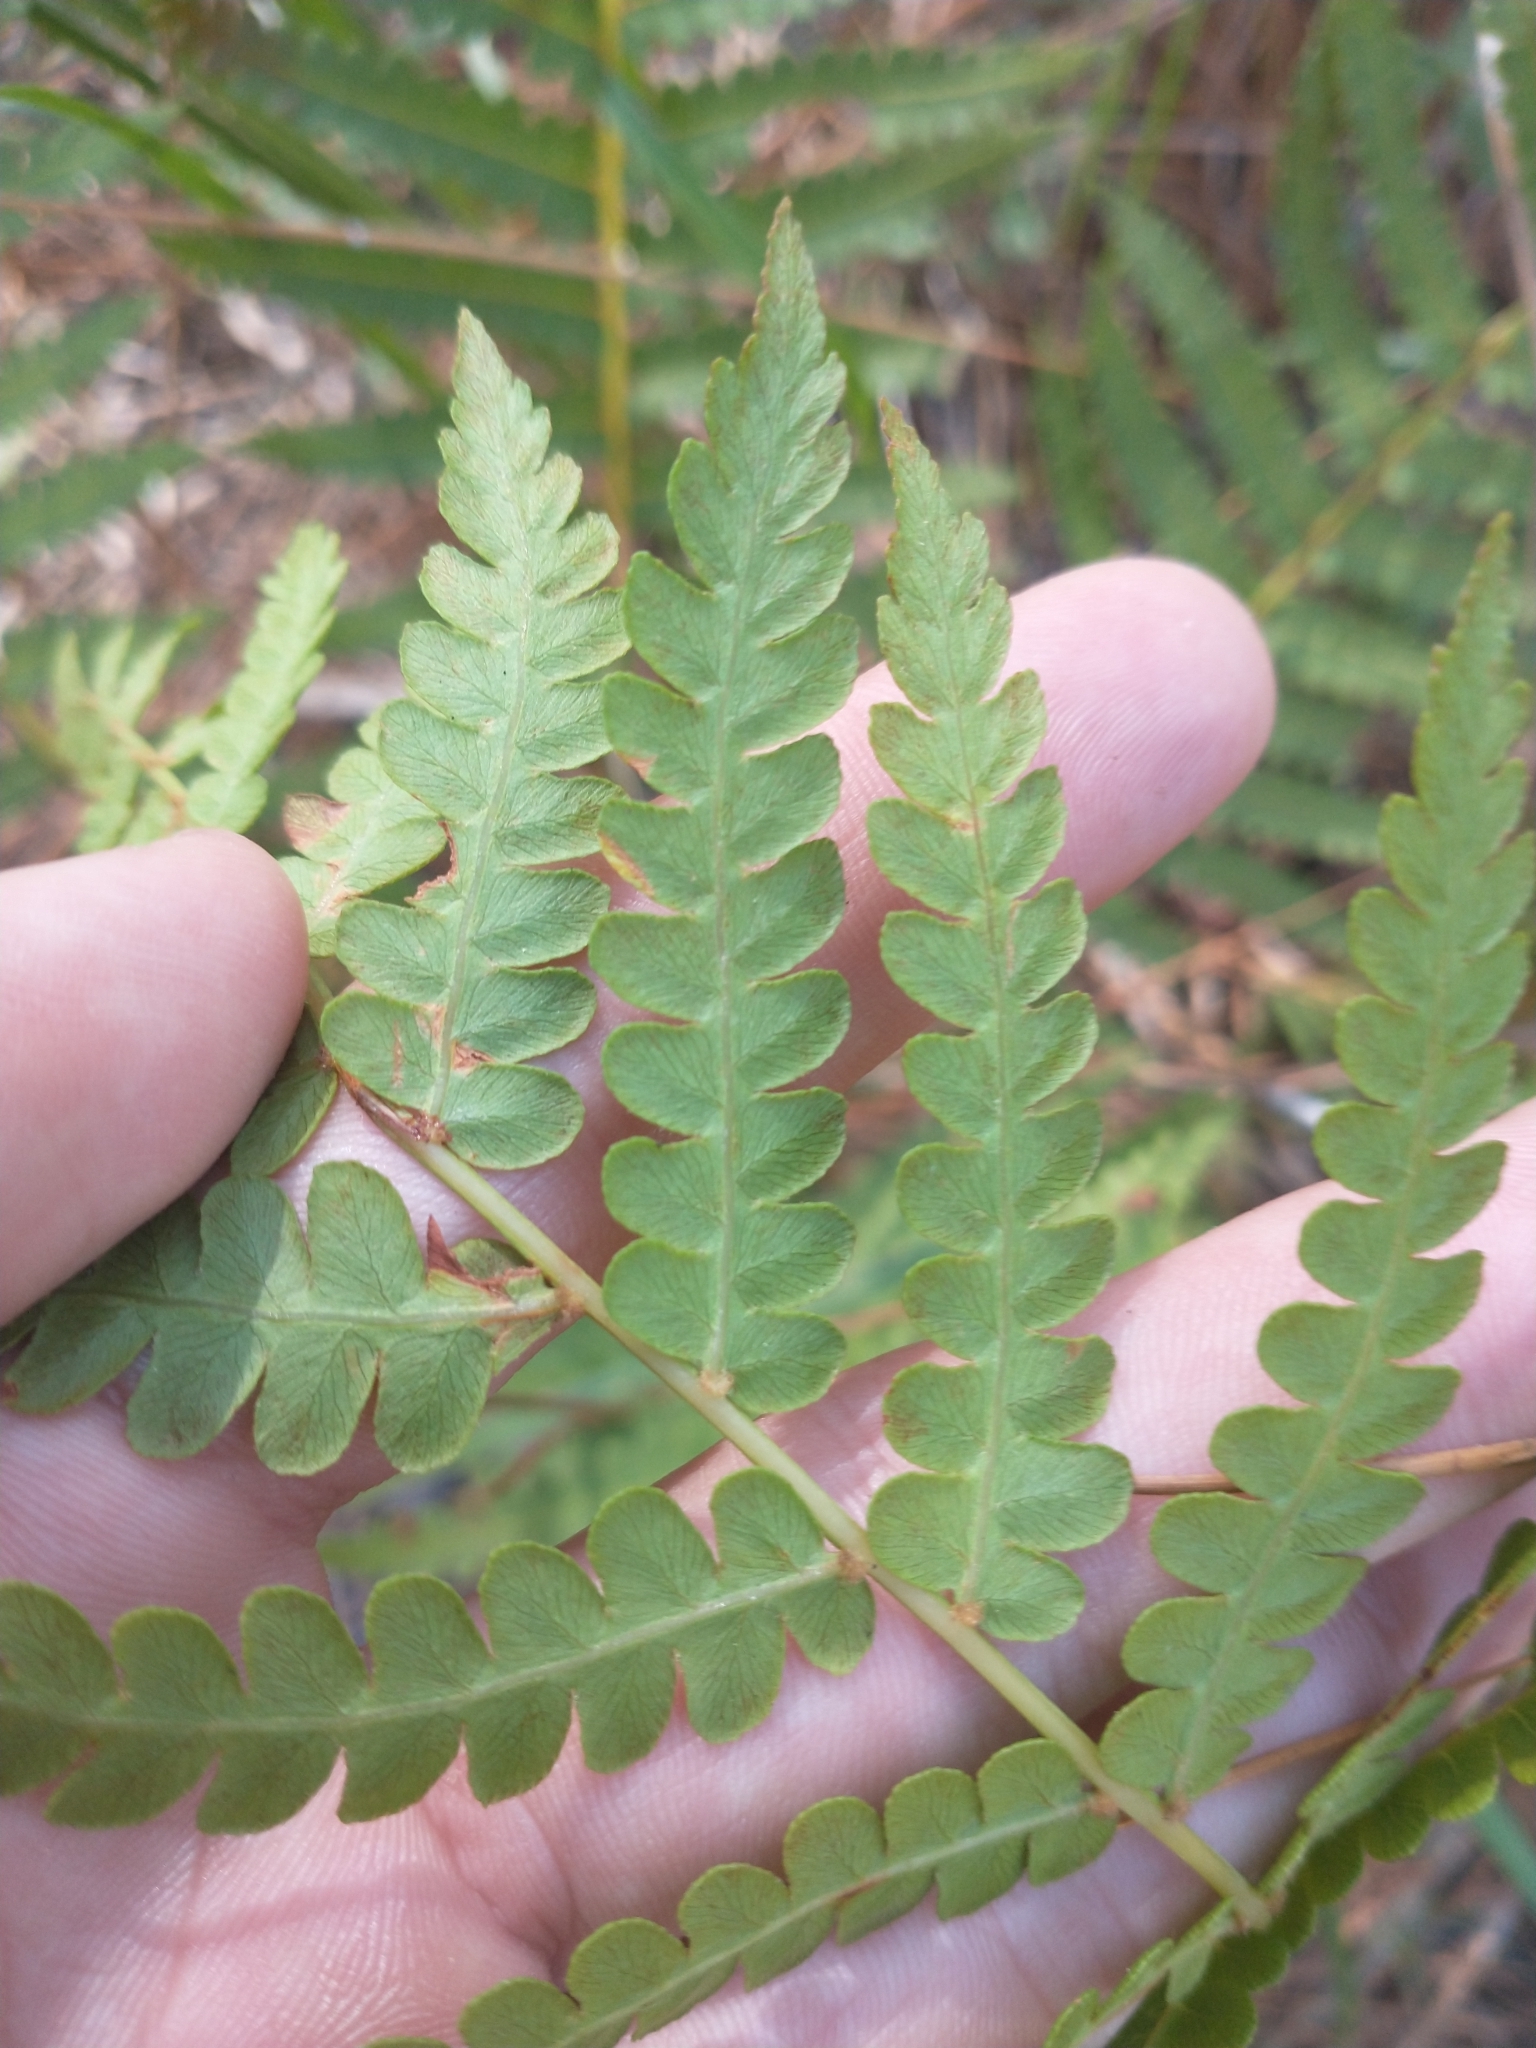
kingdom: Plantae
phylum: Tracheophyta
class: Polypodiopsida
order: Osmundales
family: Osmundaceae
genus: Osmundastrum
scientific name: Osmundastrum cinnamomeum
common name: Cinnamon fern
